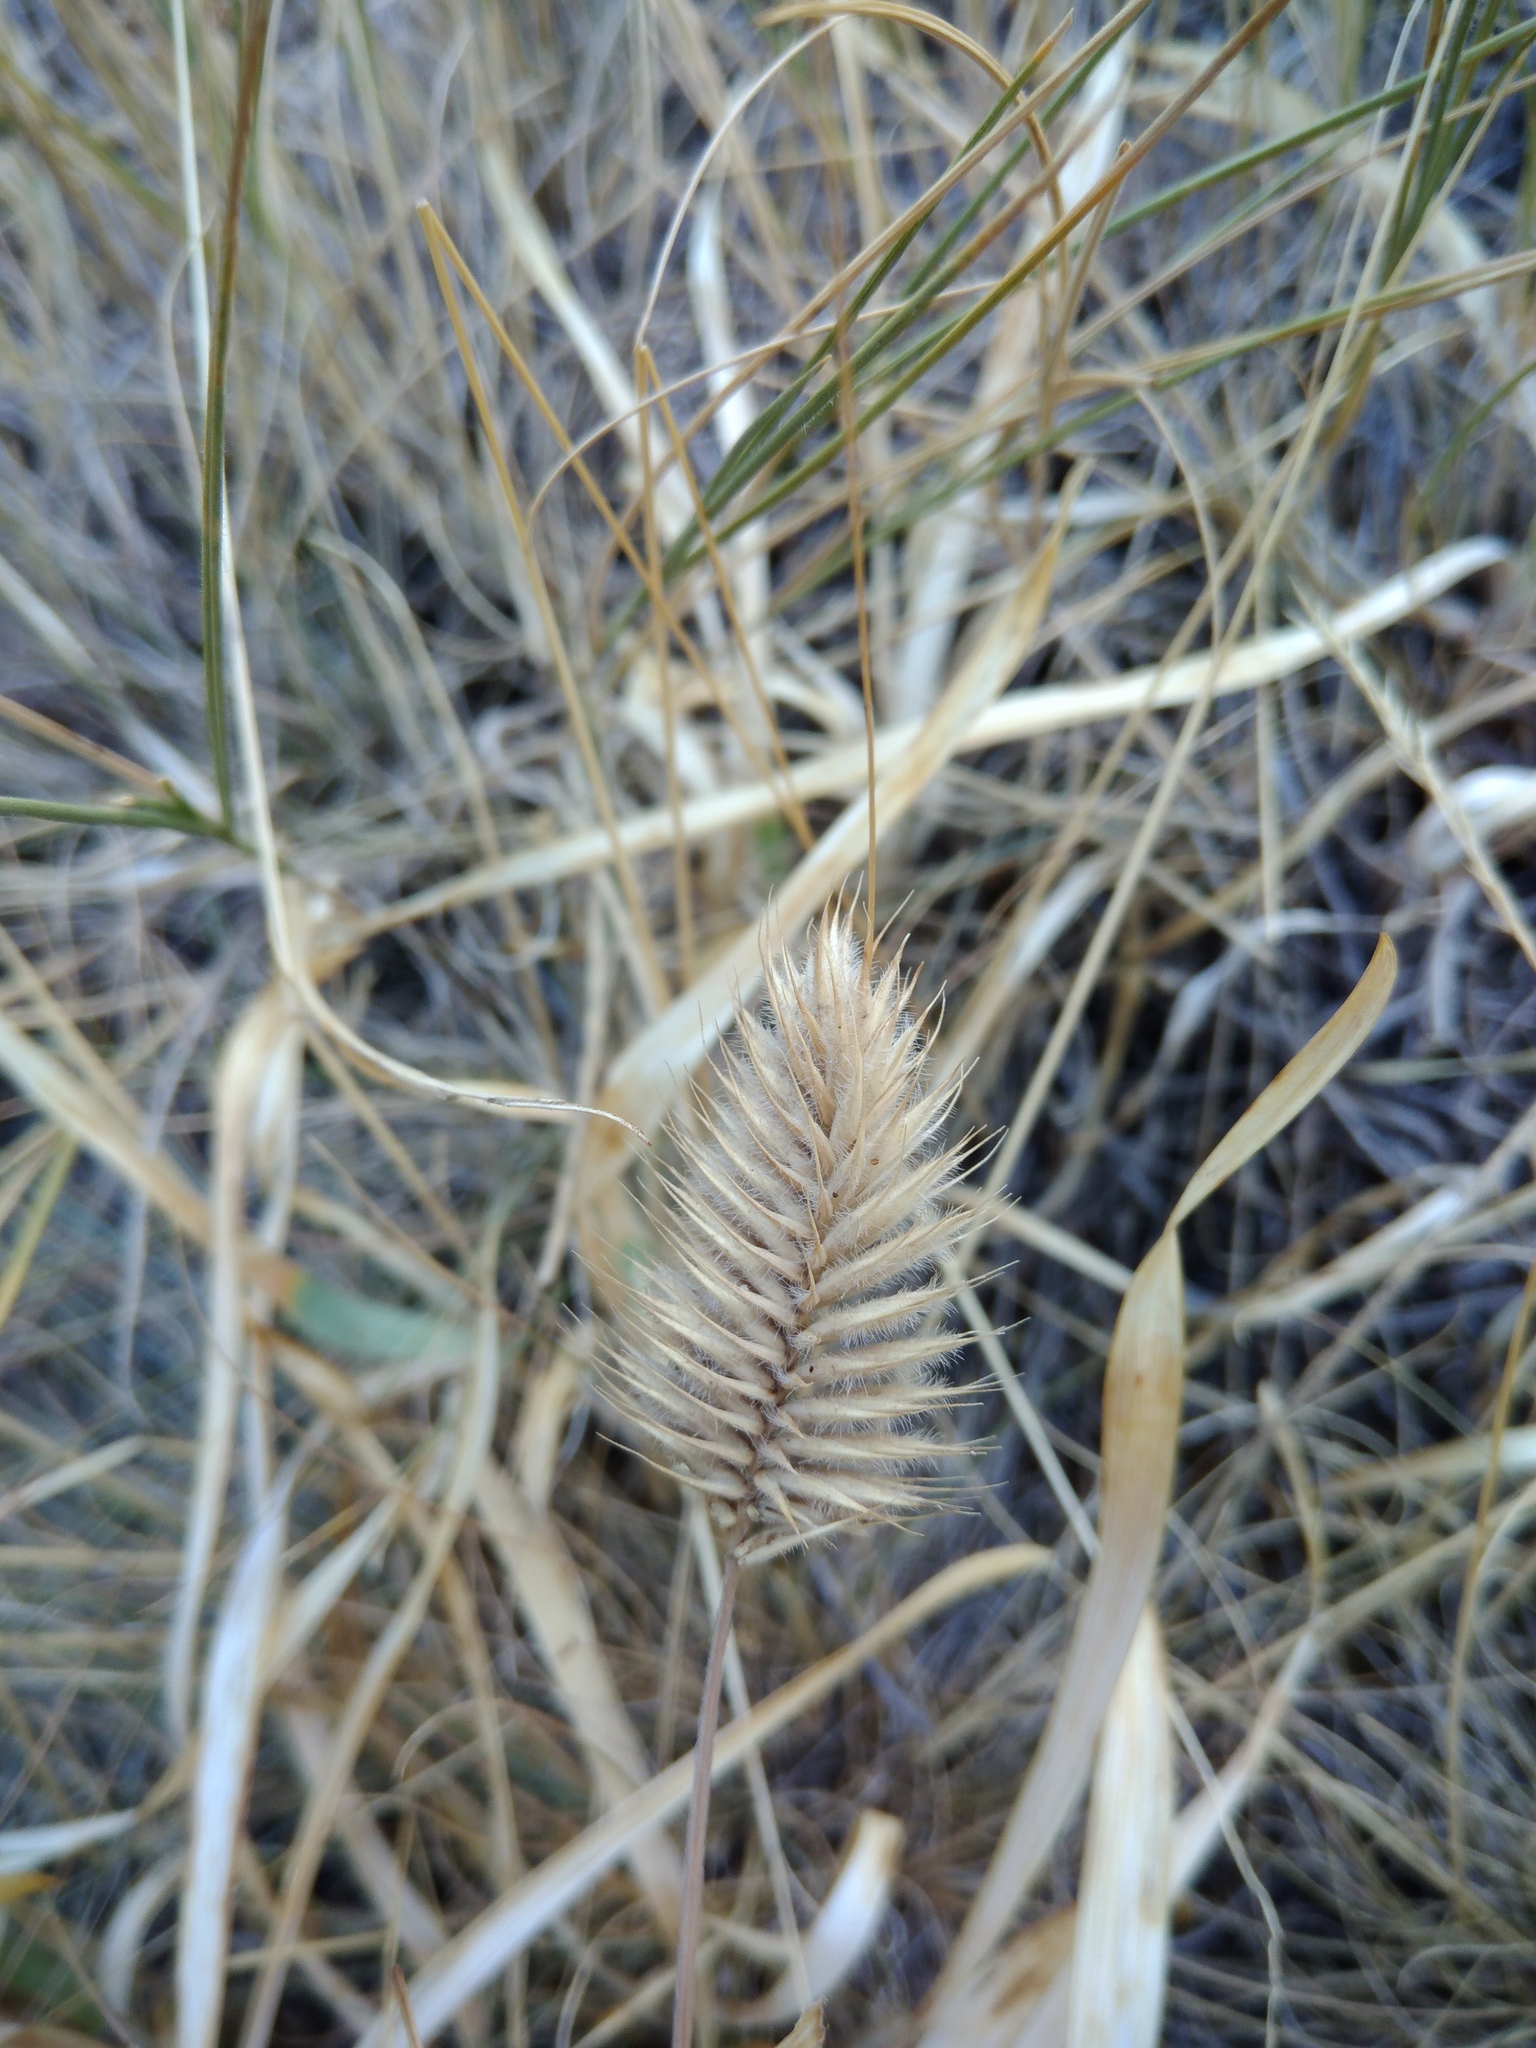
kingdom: Plantae
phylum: Tracheophyta
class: Liliopsida
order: Poales
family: Poaceae
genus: Agropyron
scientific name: Agropyron cristatum
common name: Crested wheatgrass
